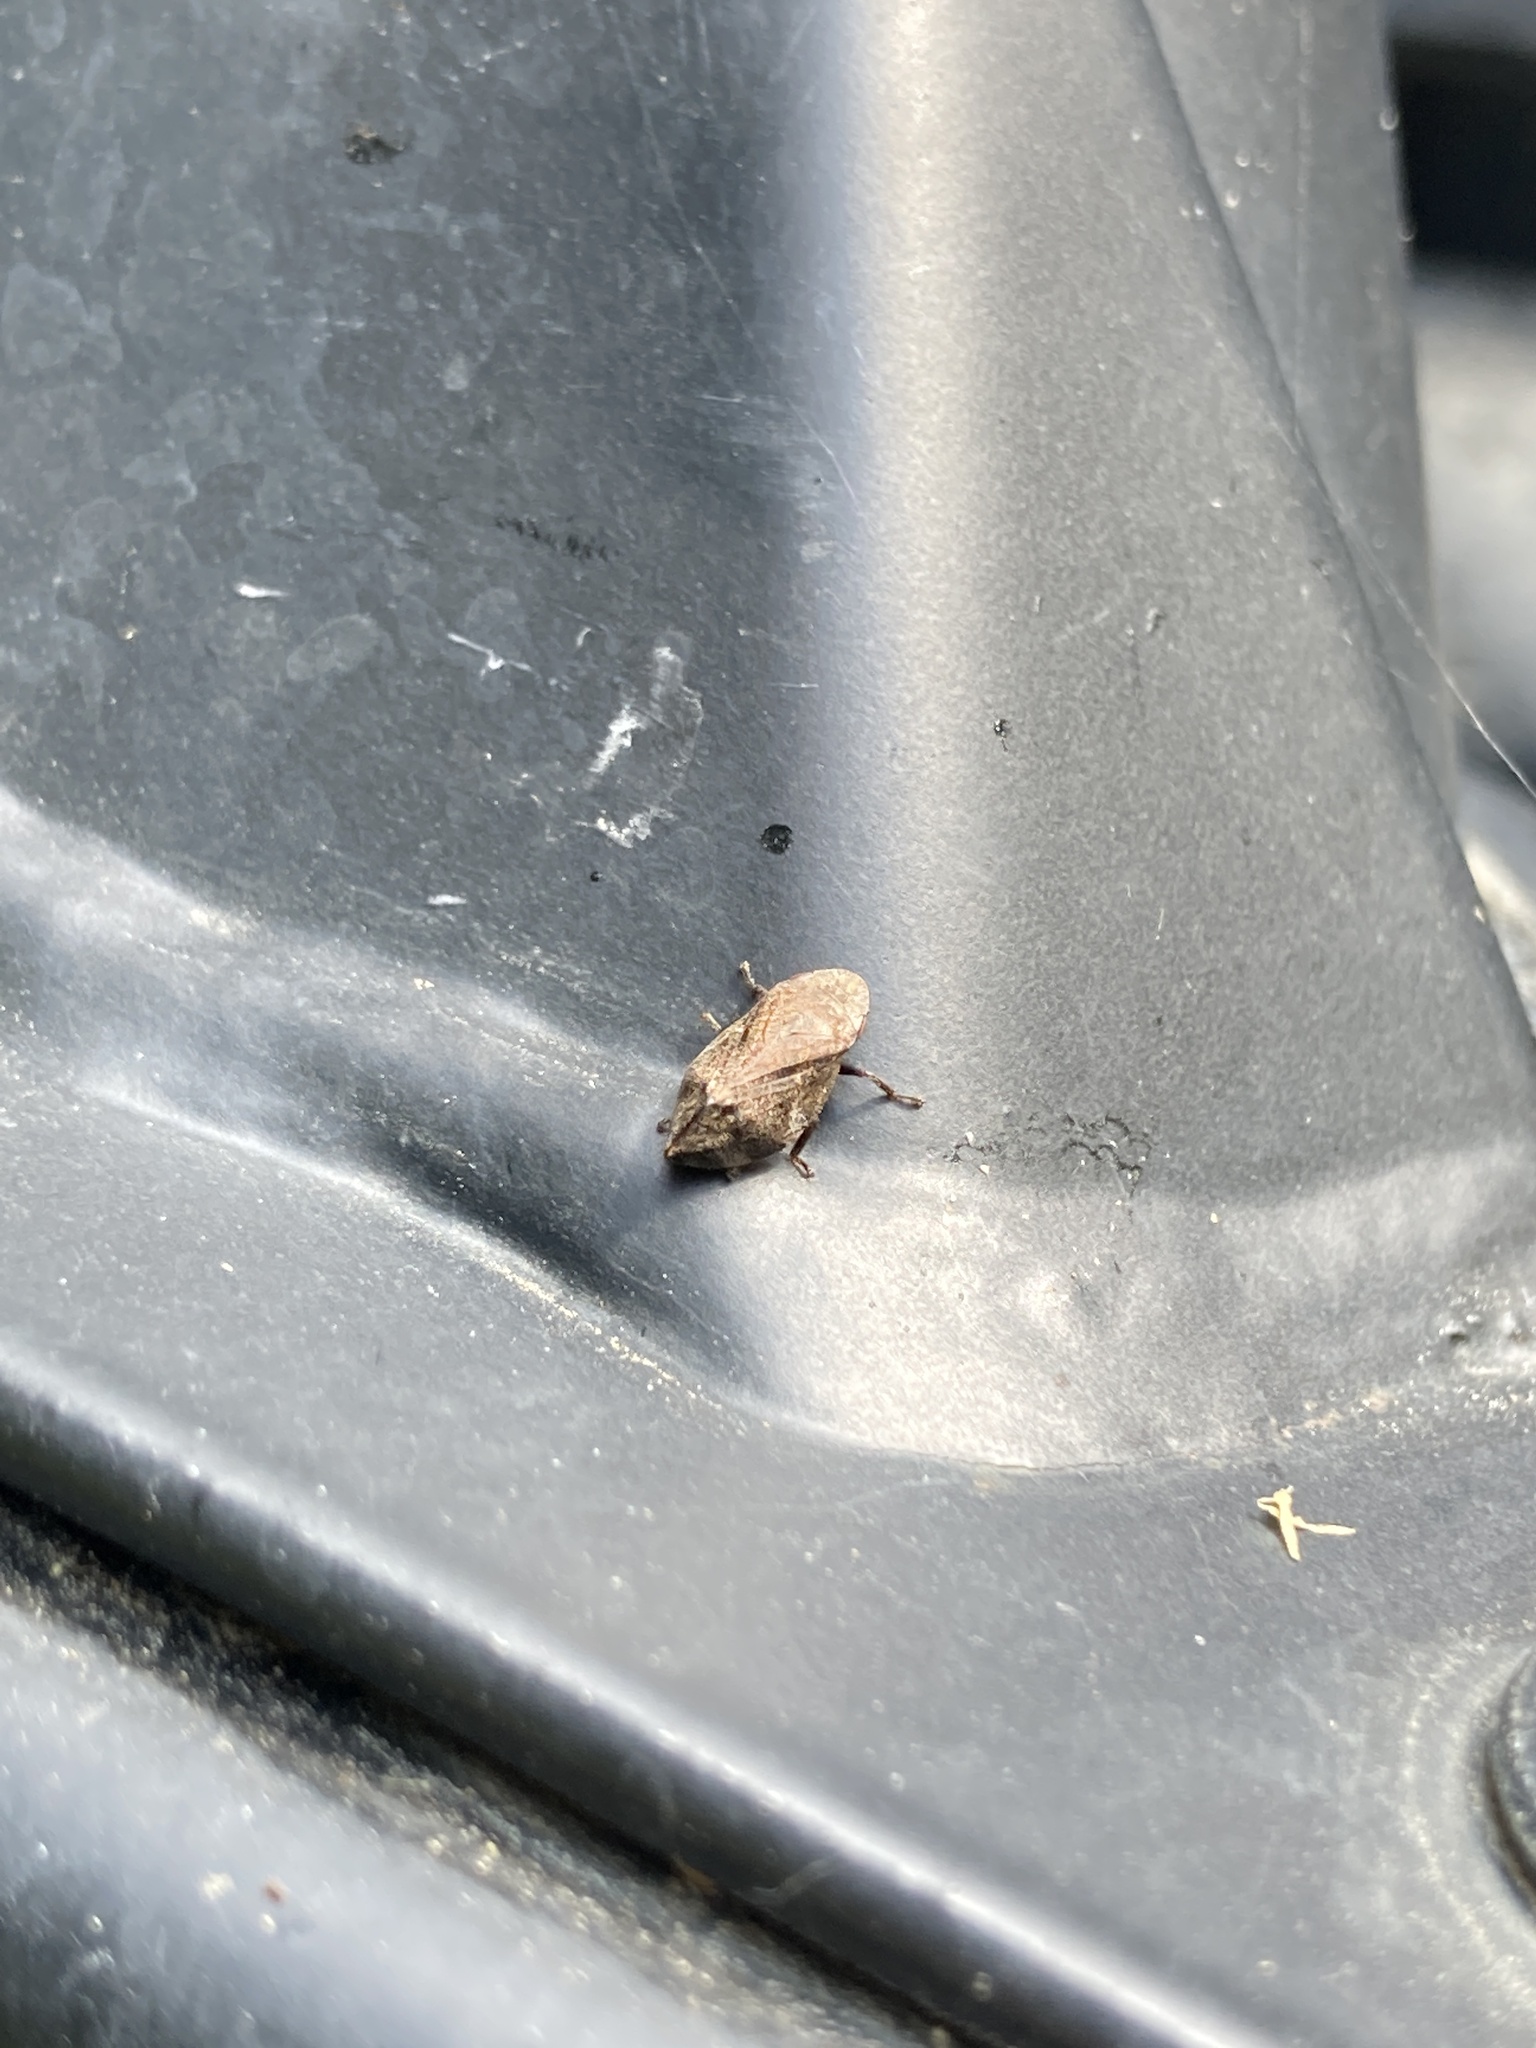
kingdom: Animalia
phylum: Arthropoda
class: Insecta
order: Hemiptera
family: Aphrophoridae
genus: Lepyronia
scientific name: Lepyronia quadrangularis
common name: Diamond-backed spittlebug
